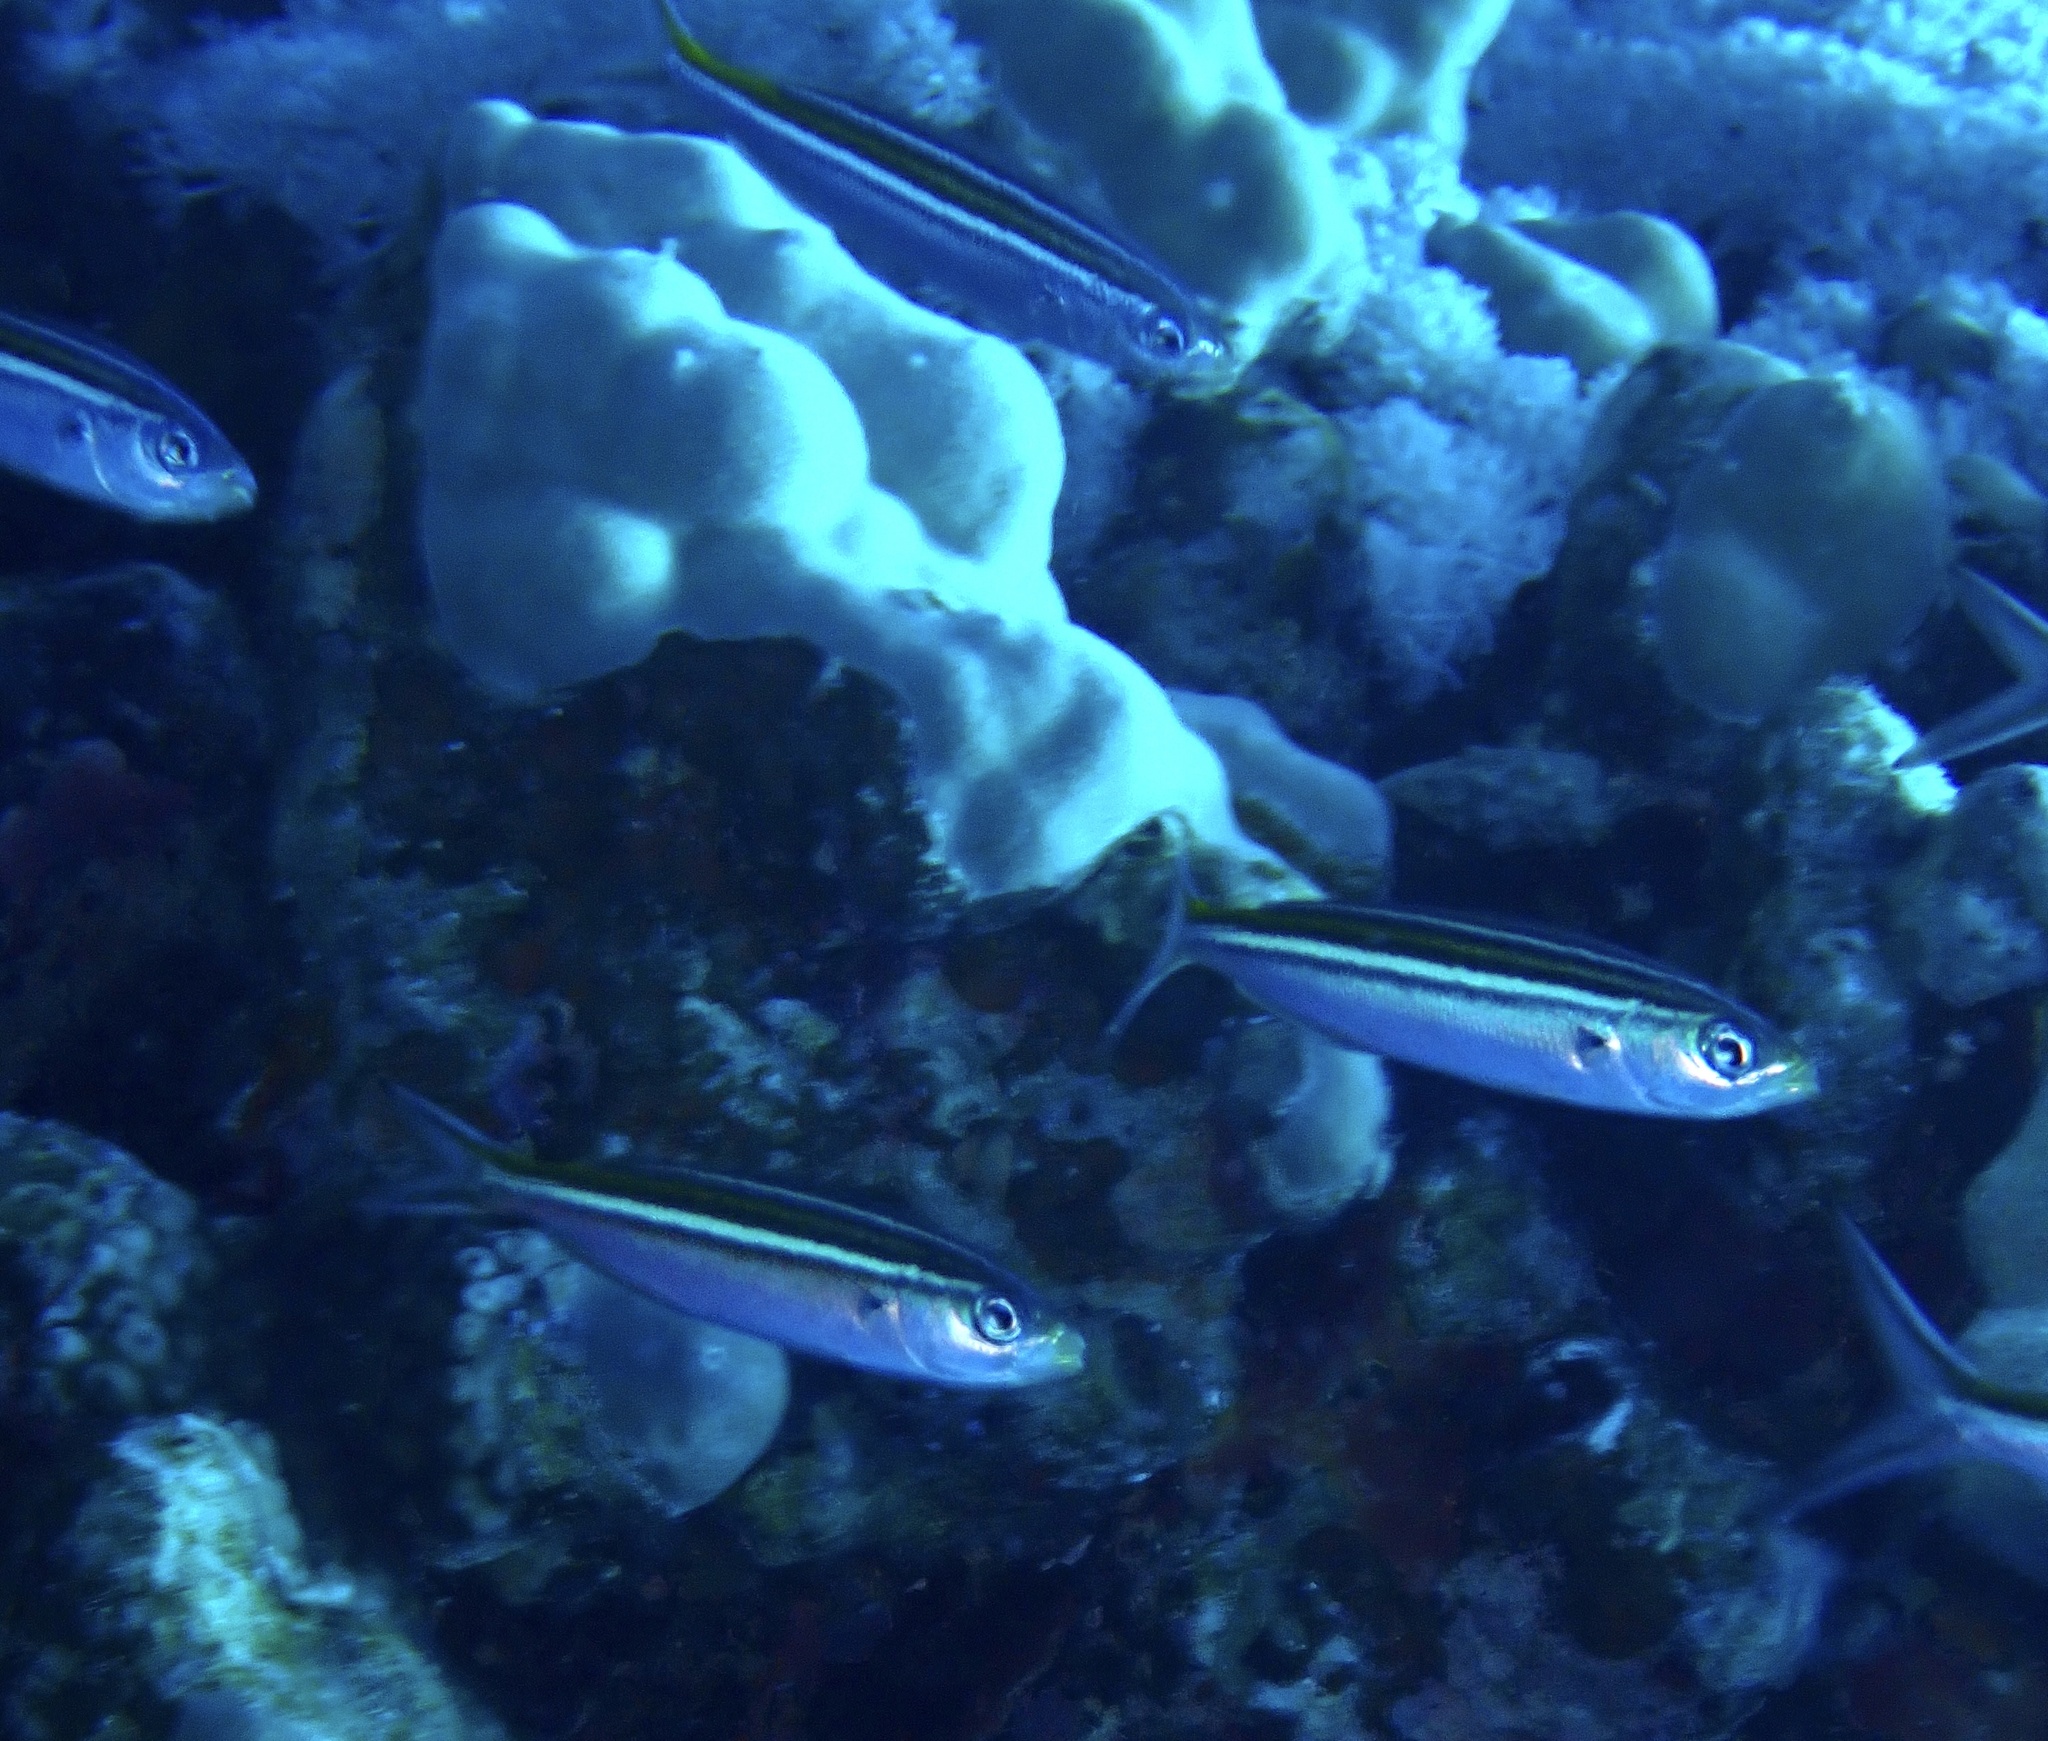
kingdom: Animalia
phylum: Chordata
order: Perciformes
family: Caesionidae
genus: Caesio
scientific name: Caesio striata
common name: Striated fusilier
